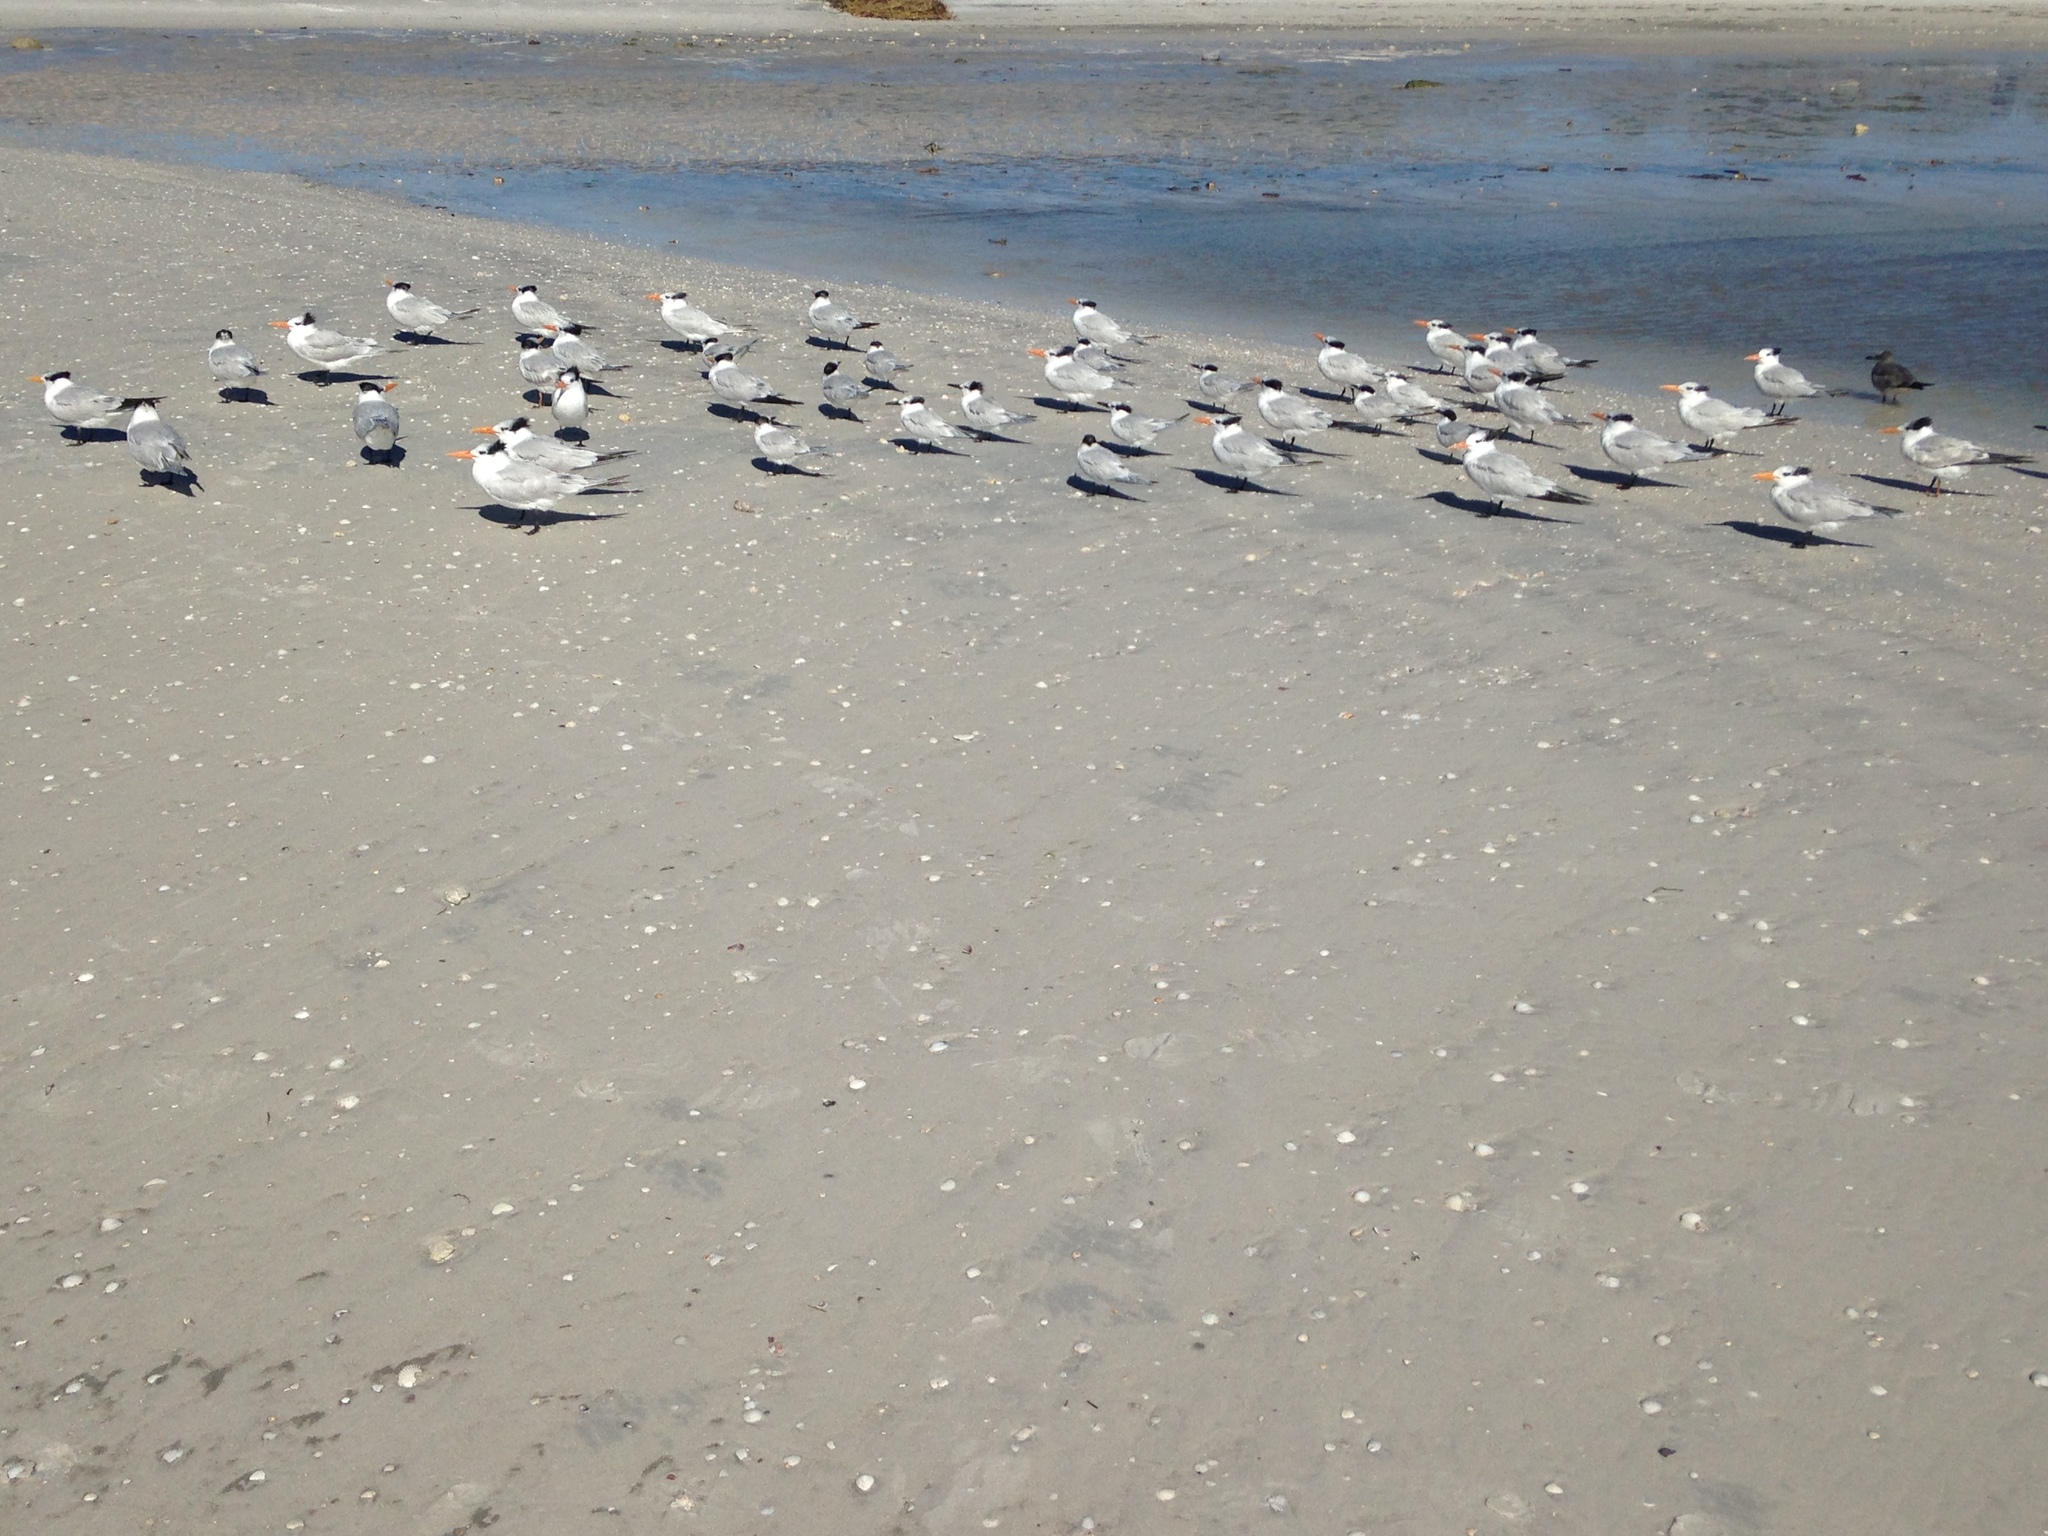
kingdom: Animalia
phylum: Chordata
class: Aves
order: Charadriiformes
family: Laridae
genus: Leucophaeus
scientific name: Leucophaeus atricilla
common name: Laughing gull
